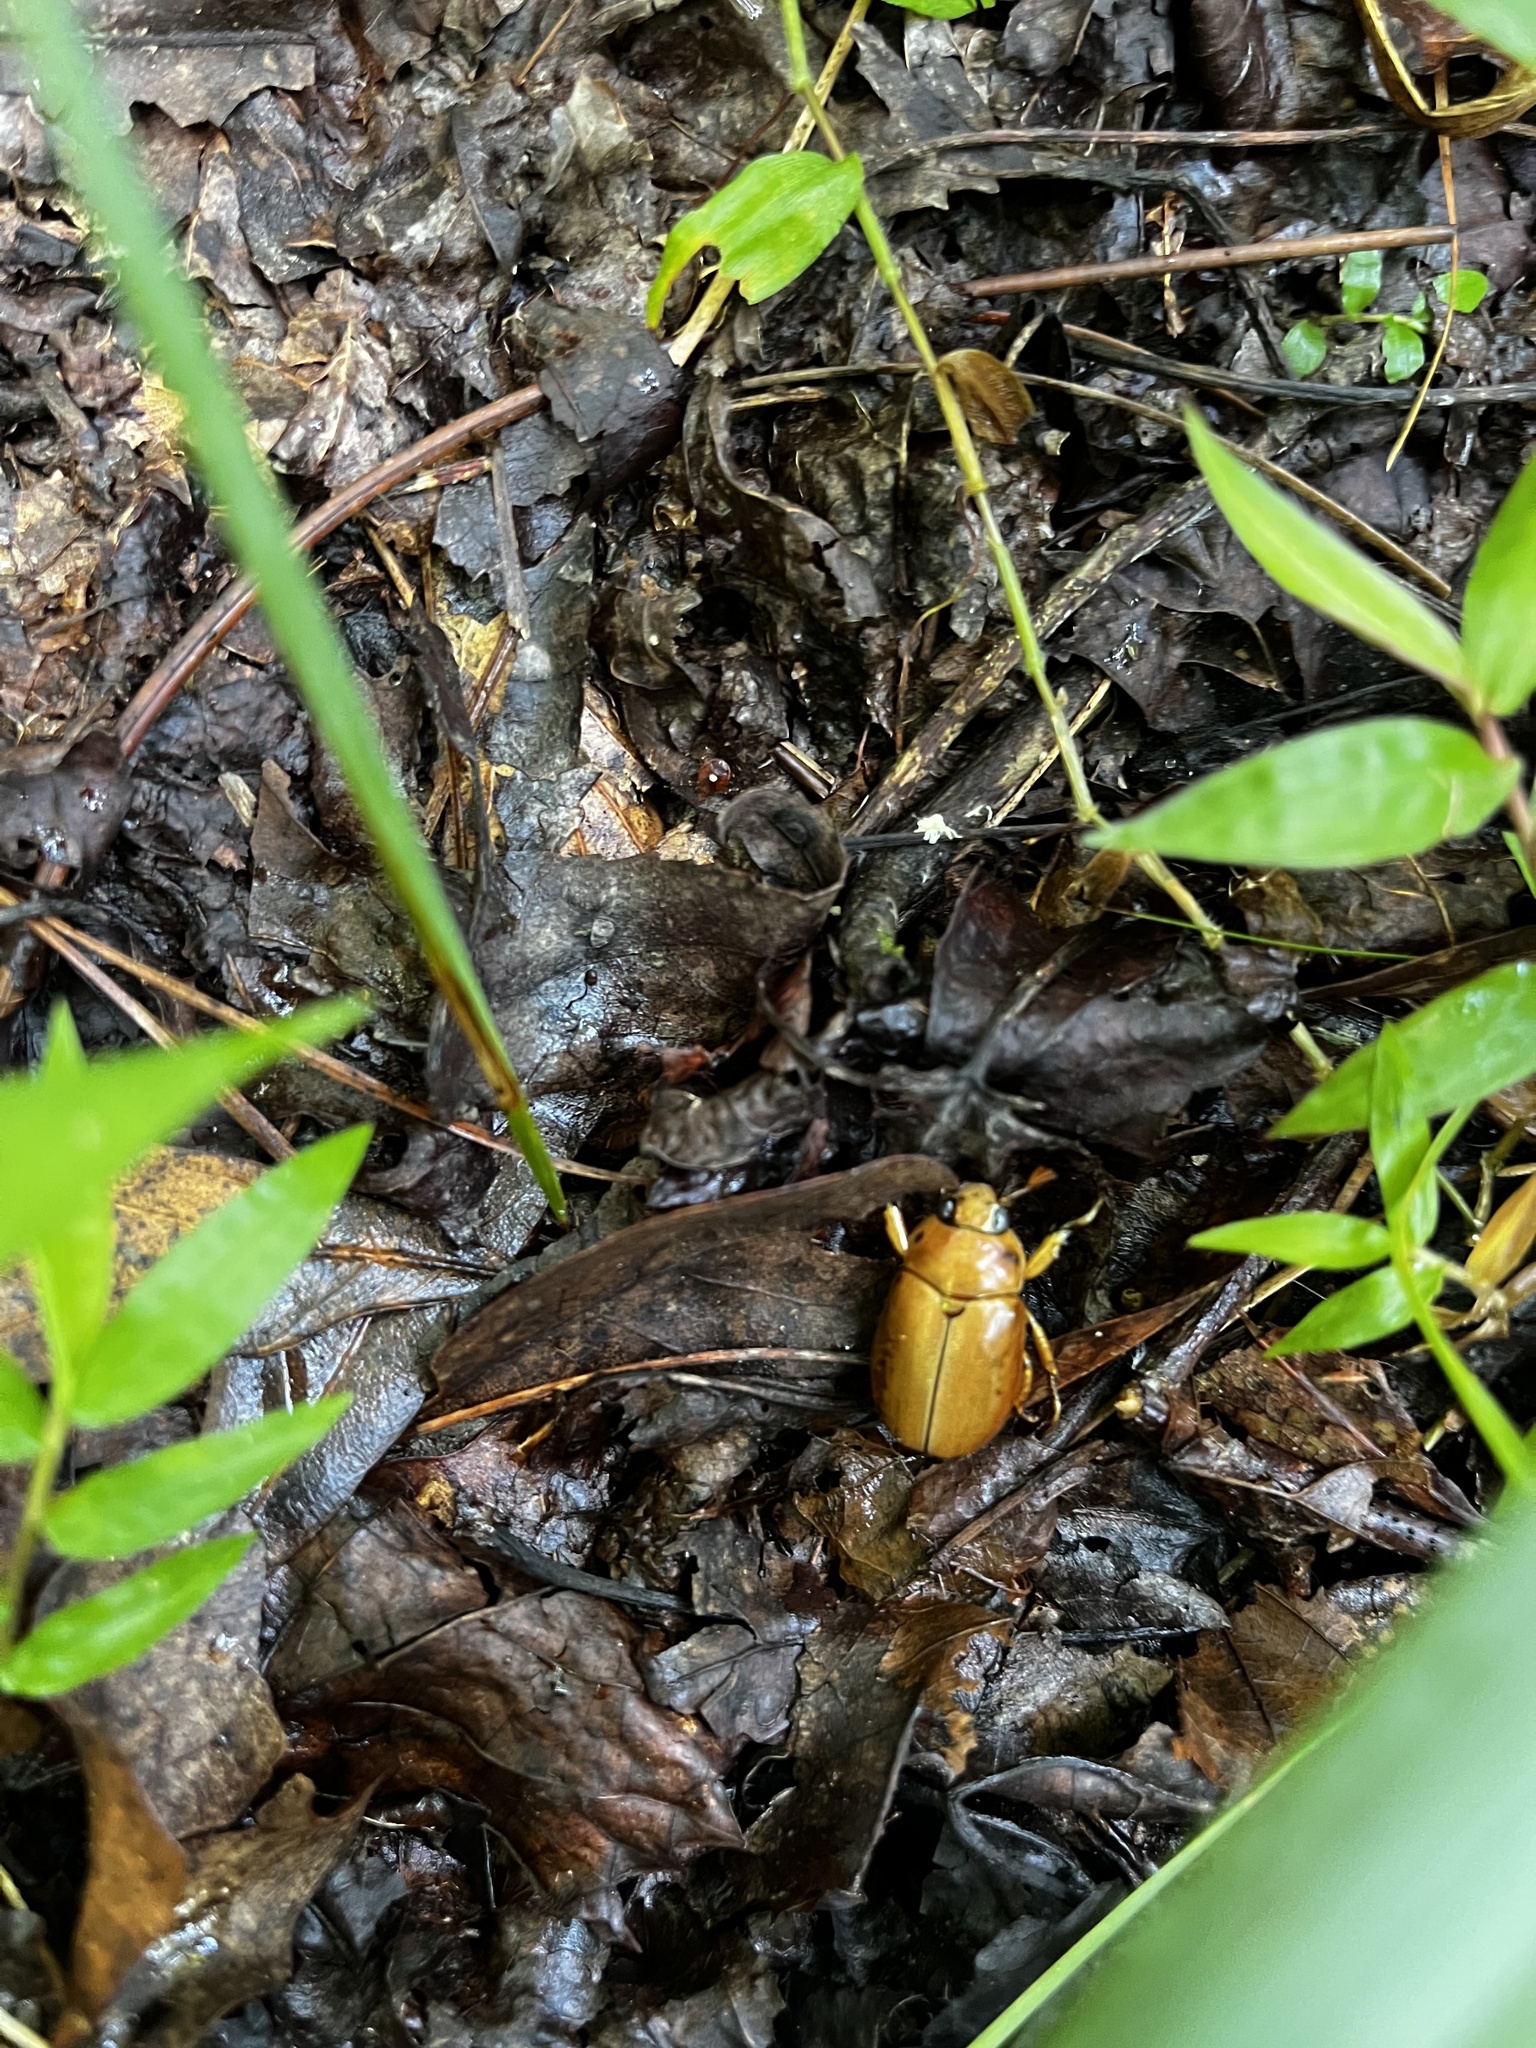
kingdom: Animalia
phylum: Arthropoda
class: Insecta
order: Coleoptera
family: Scarabaeidae
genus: Pelidnota
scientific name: Pelidnota punctata
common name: Grapevine beetle
